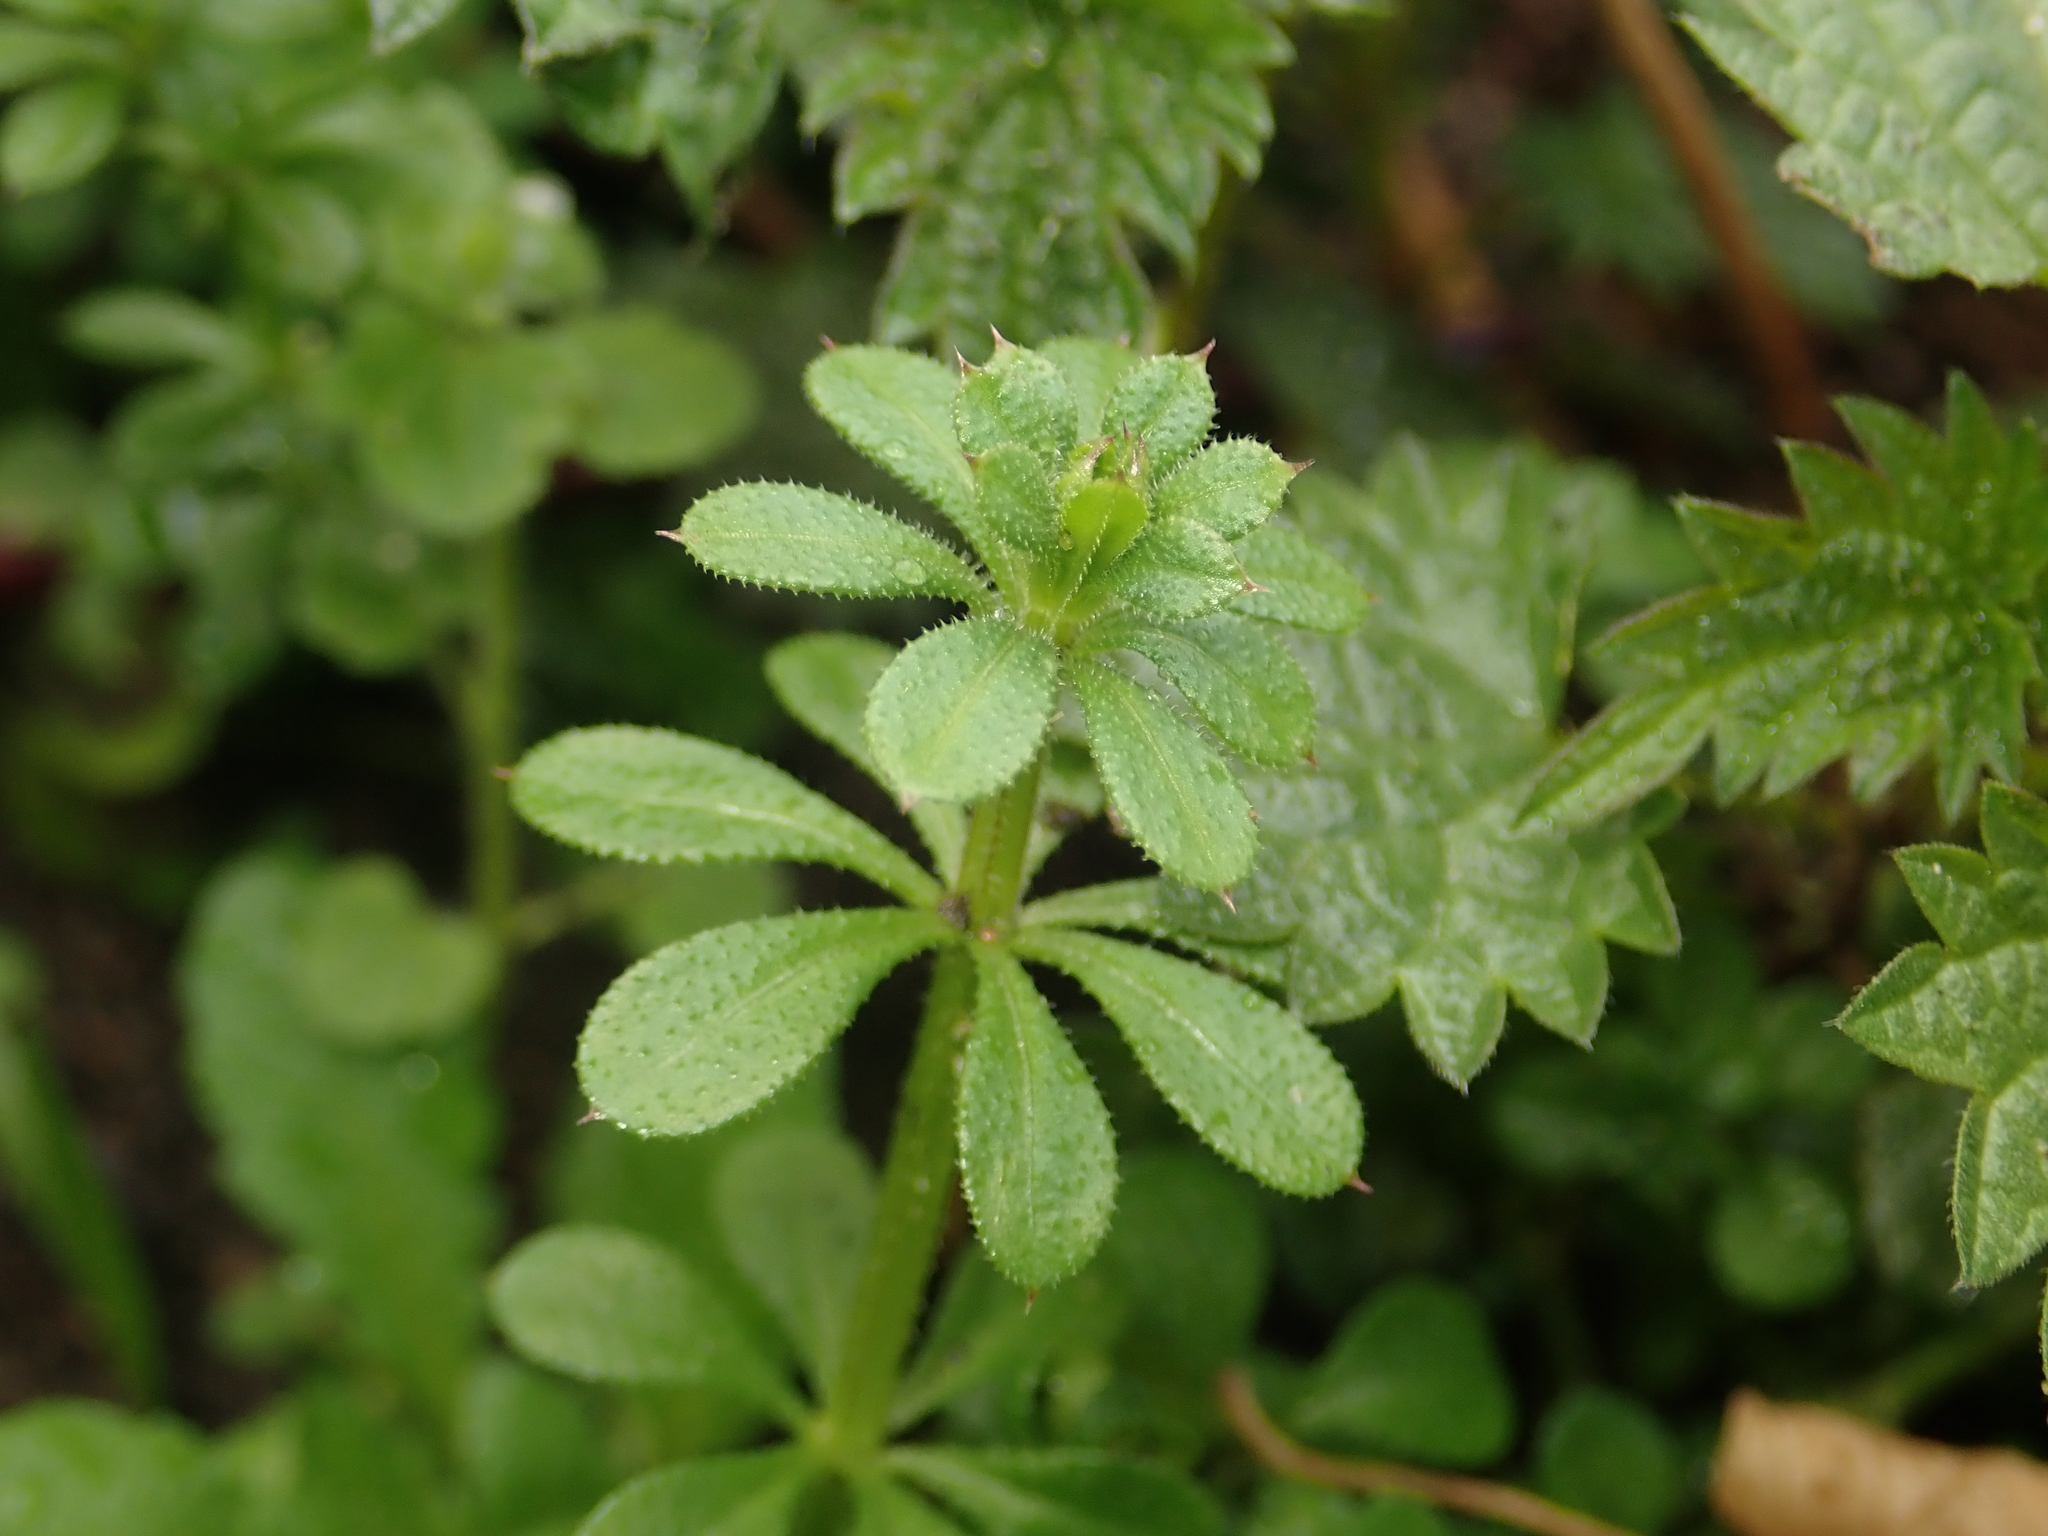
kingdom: Plantae
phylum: Tracheophyta
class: Magnoliopsida
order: Gentianales
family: Rubiaceae
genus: Galium
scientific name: Galium aparine
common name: Cleavers
